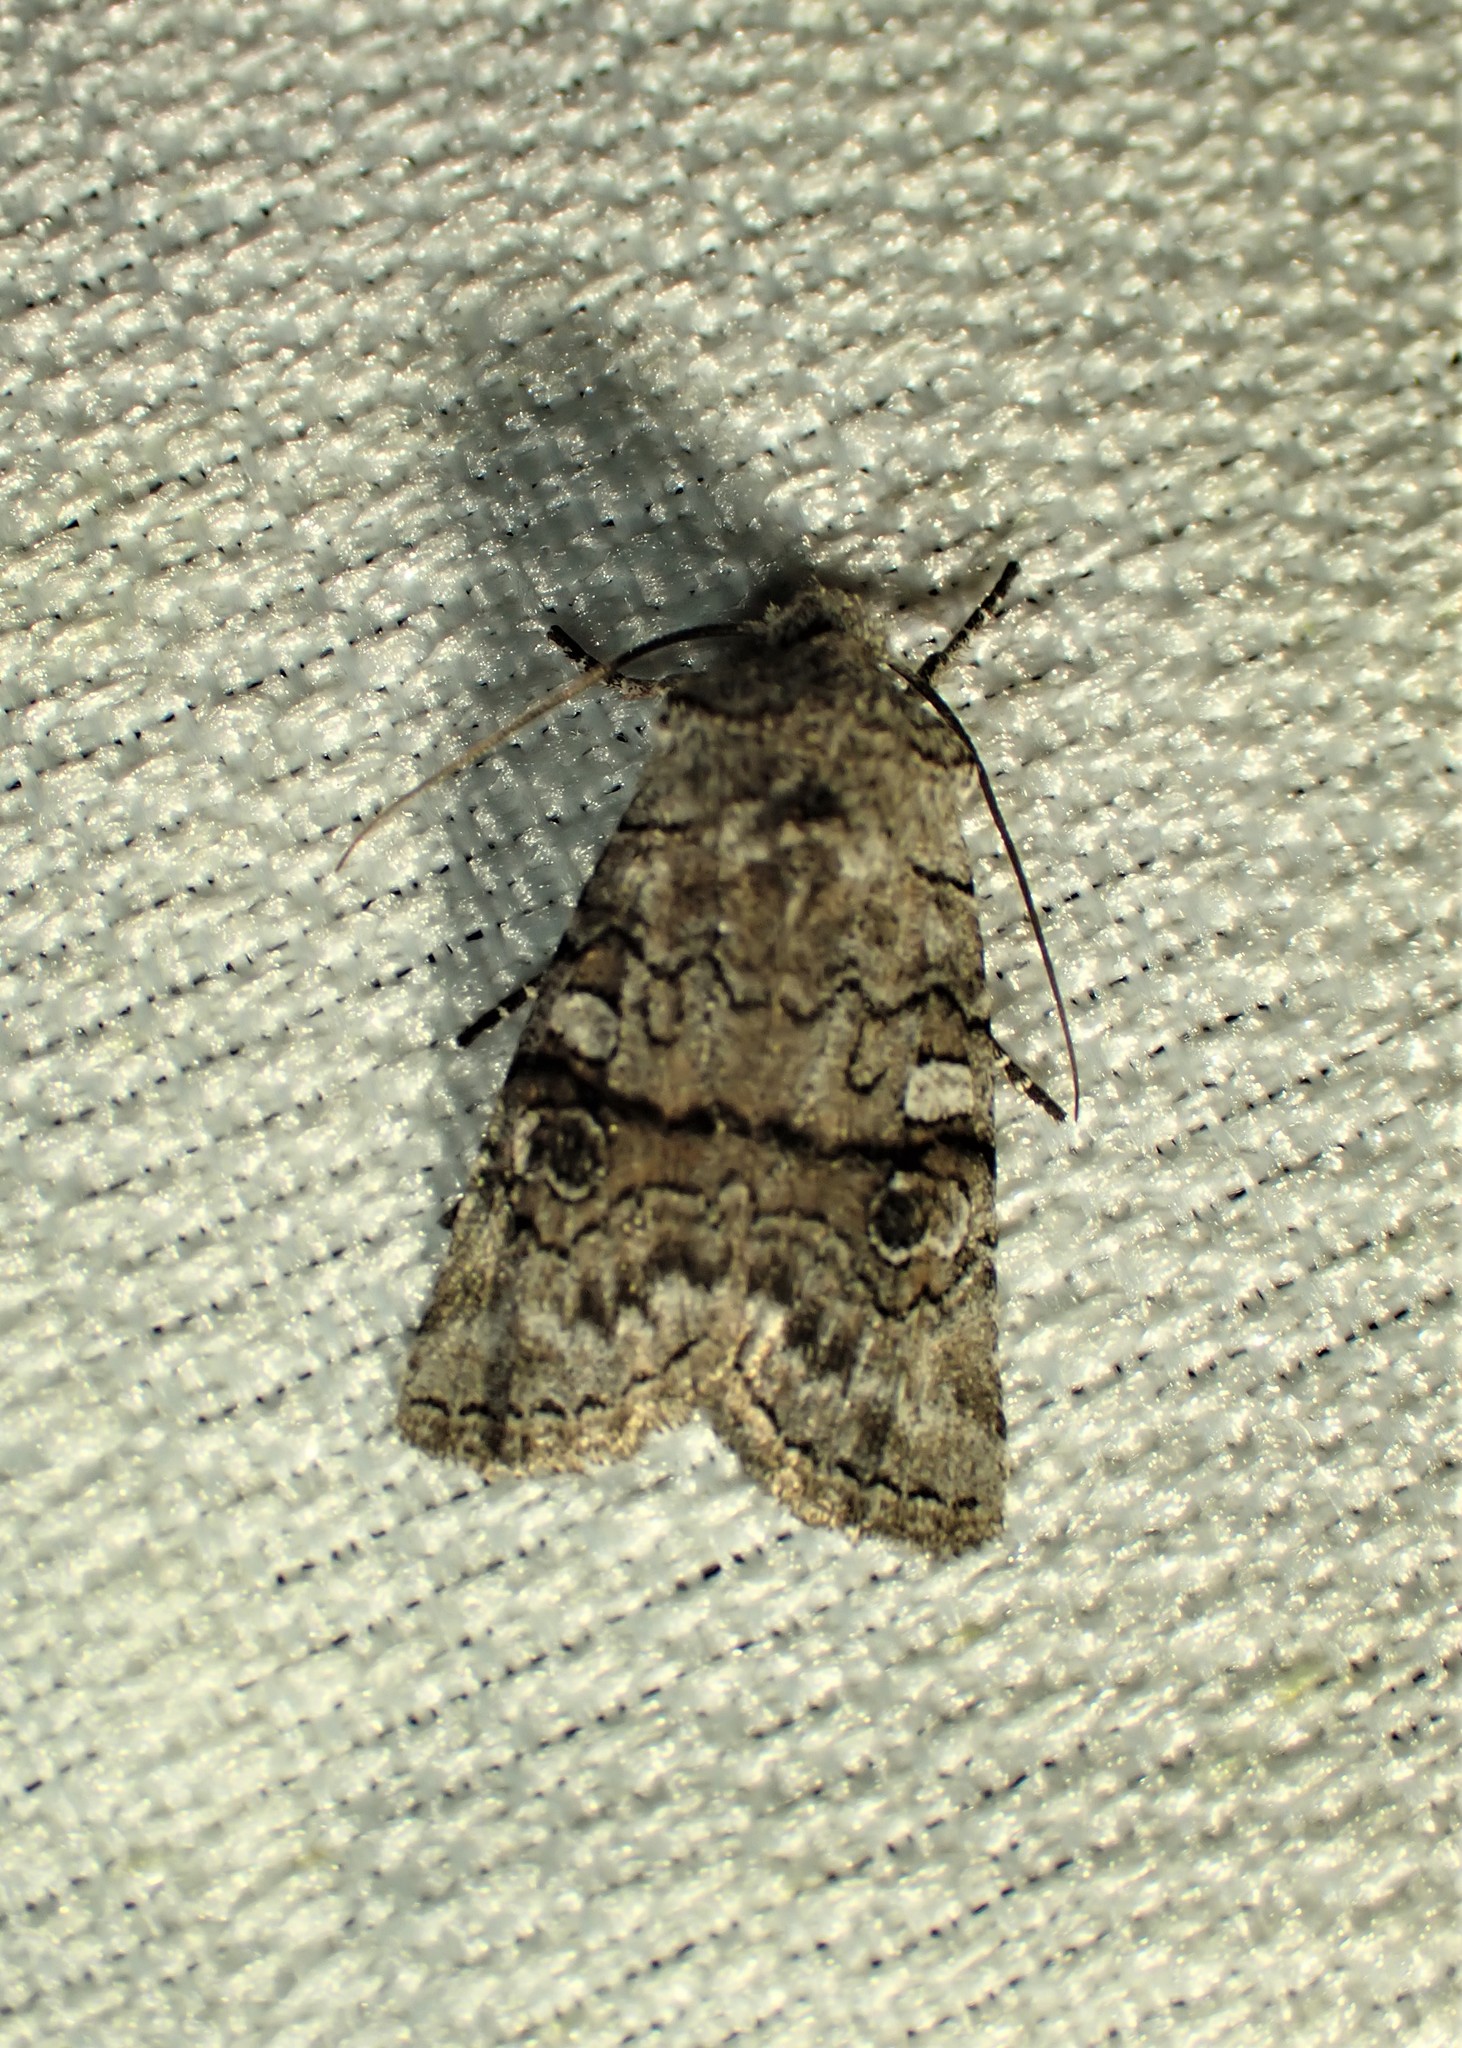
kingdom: Animalia
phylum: Arthropoda
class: Insecta
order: Lepidoptera
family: Noctuidae
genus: Litholomia
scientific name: Litholomia napaea
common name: False pinion moth
